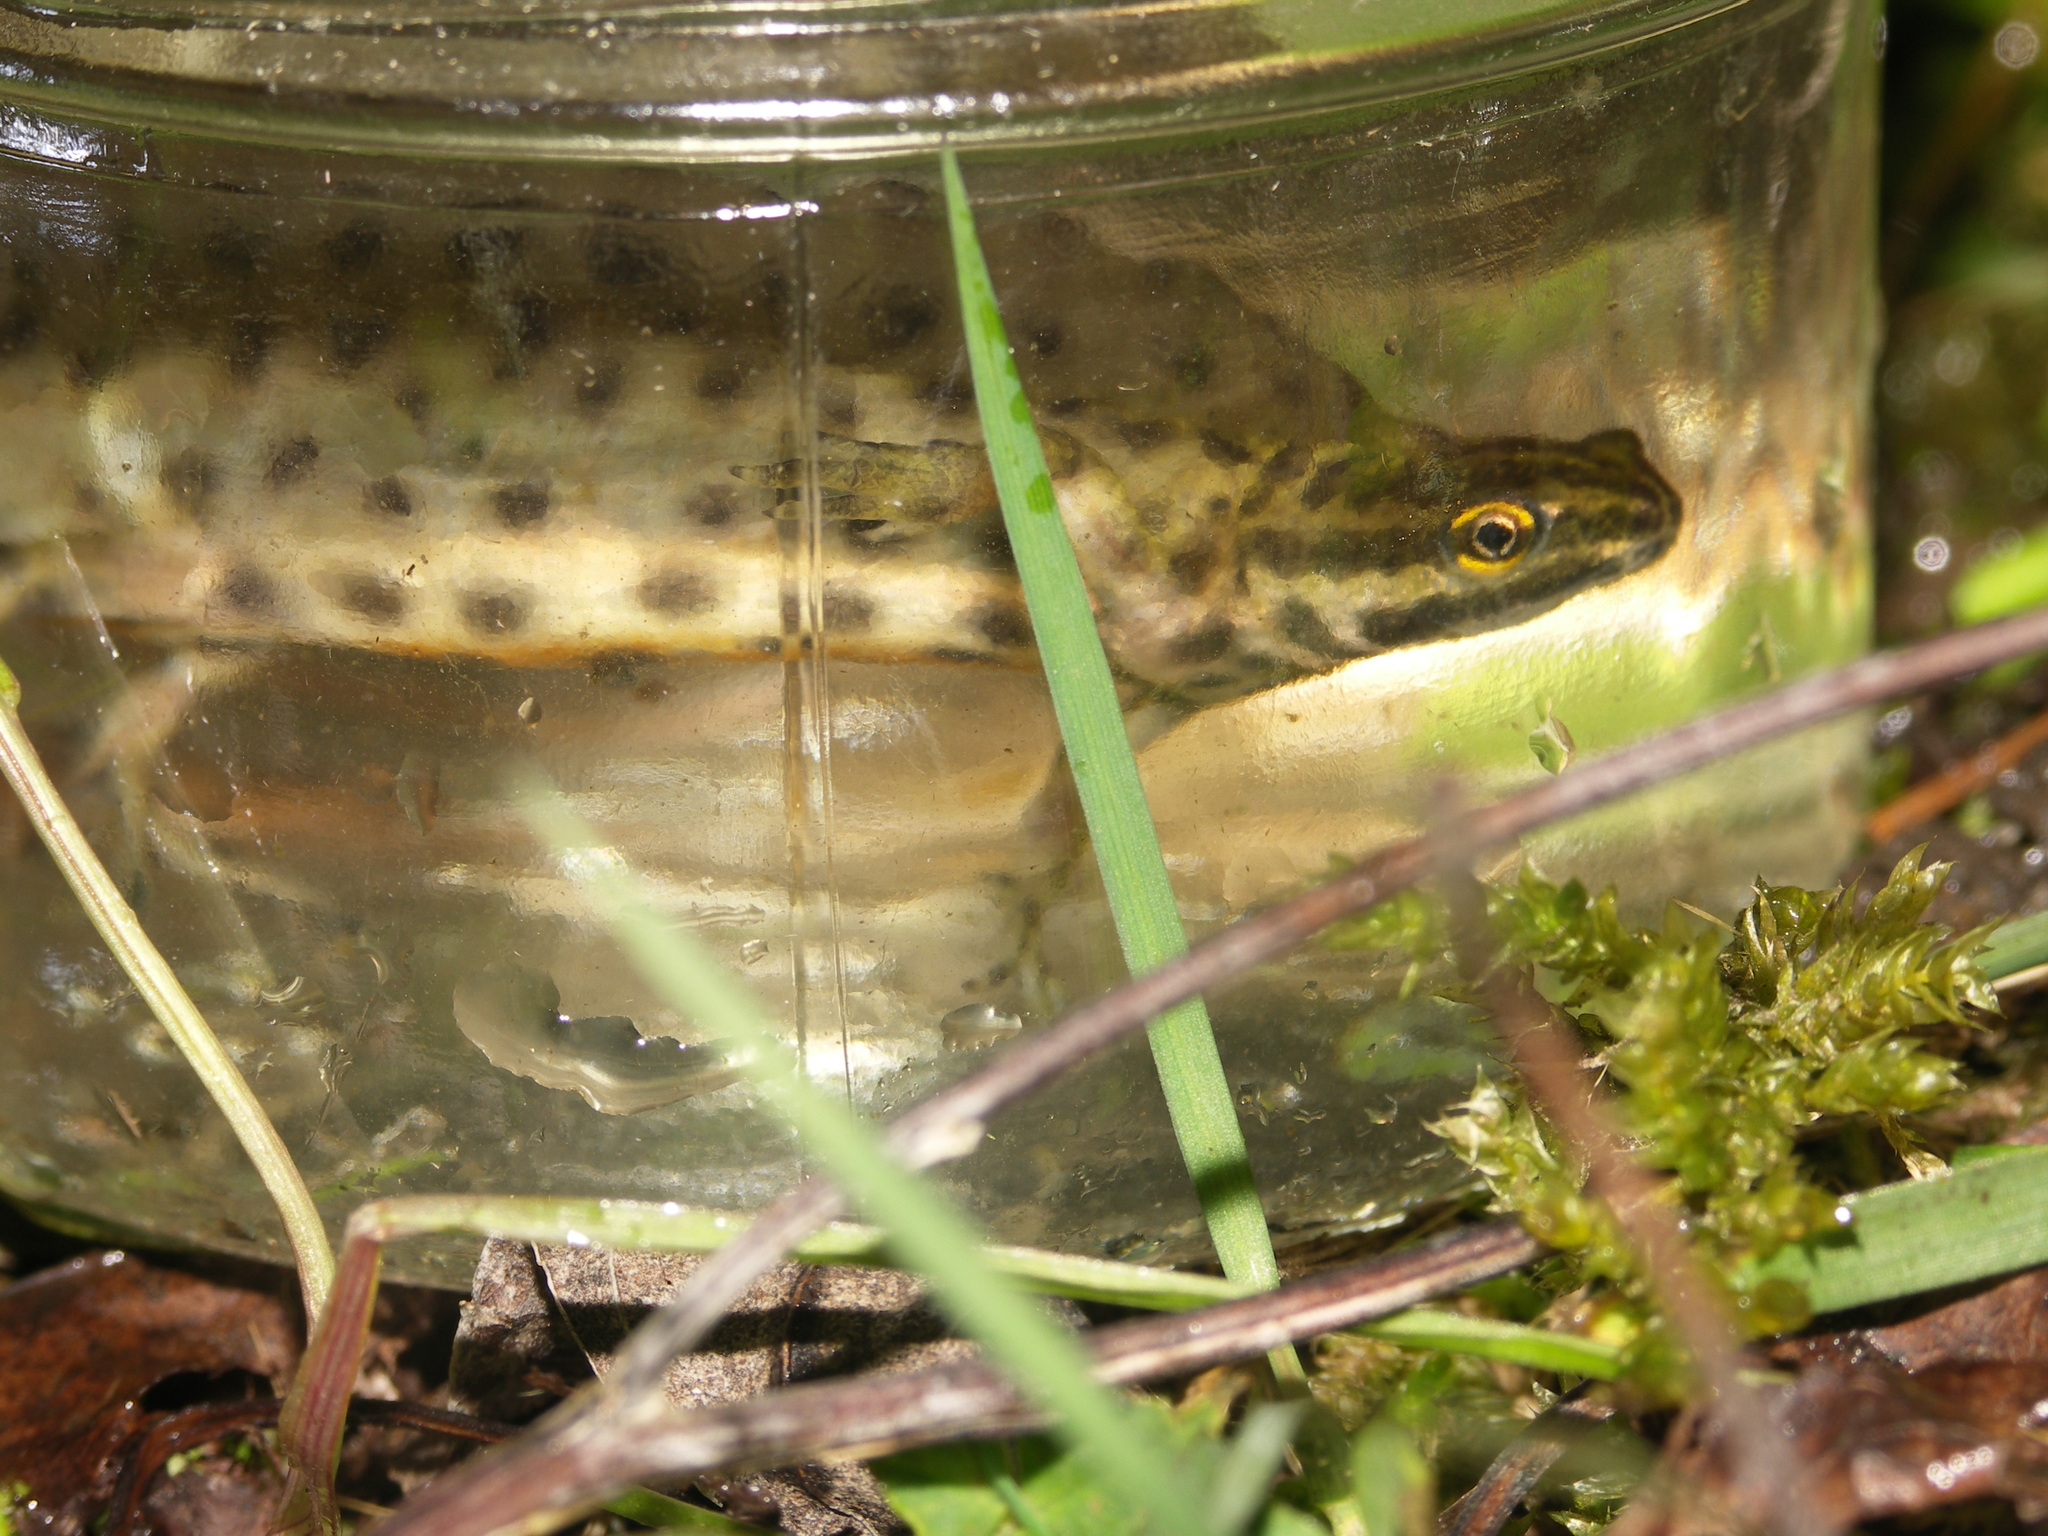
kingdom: Animalia
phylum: Chordata
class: Amphibia
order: Caudata
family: Salamandridae
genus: Lissotriton
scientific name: Lissotriton vulgaris
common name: Smooth newt
